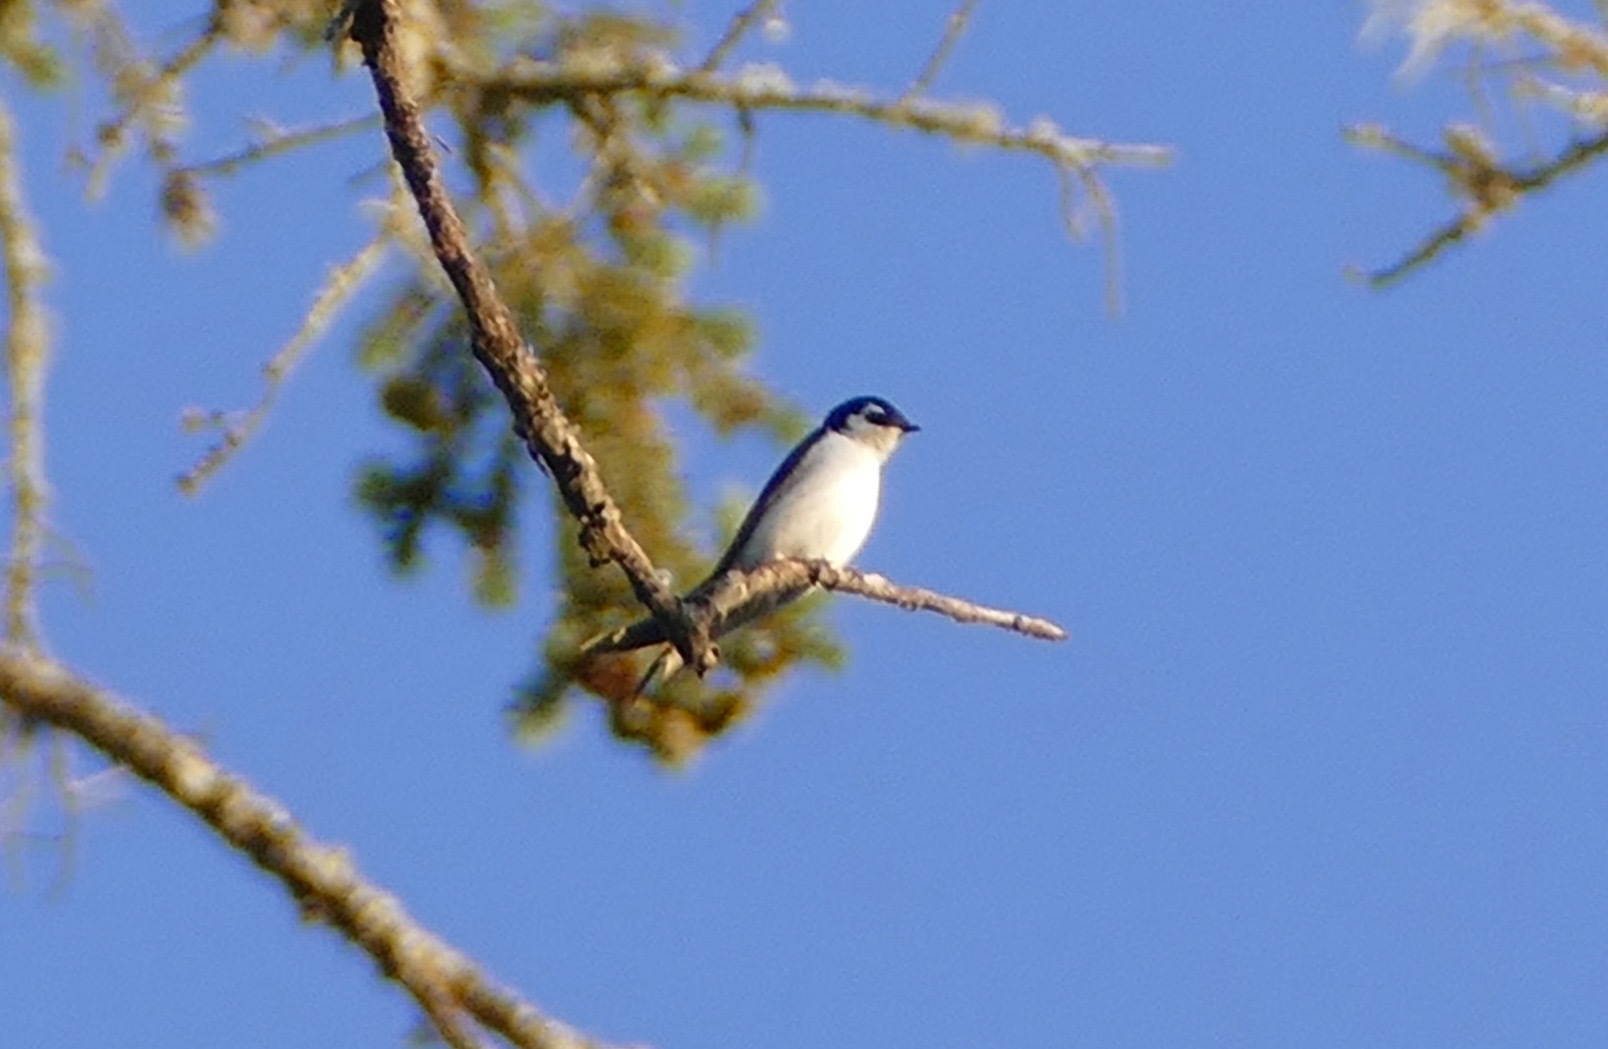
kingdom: Animalia
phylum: Chordata
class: Aves
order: Passeriformes
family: Hirundinidae
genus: Tachycineta
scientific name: Tachycineta thalassina
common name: Violet-green swallow
